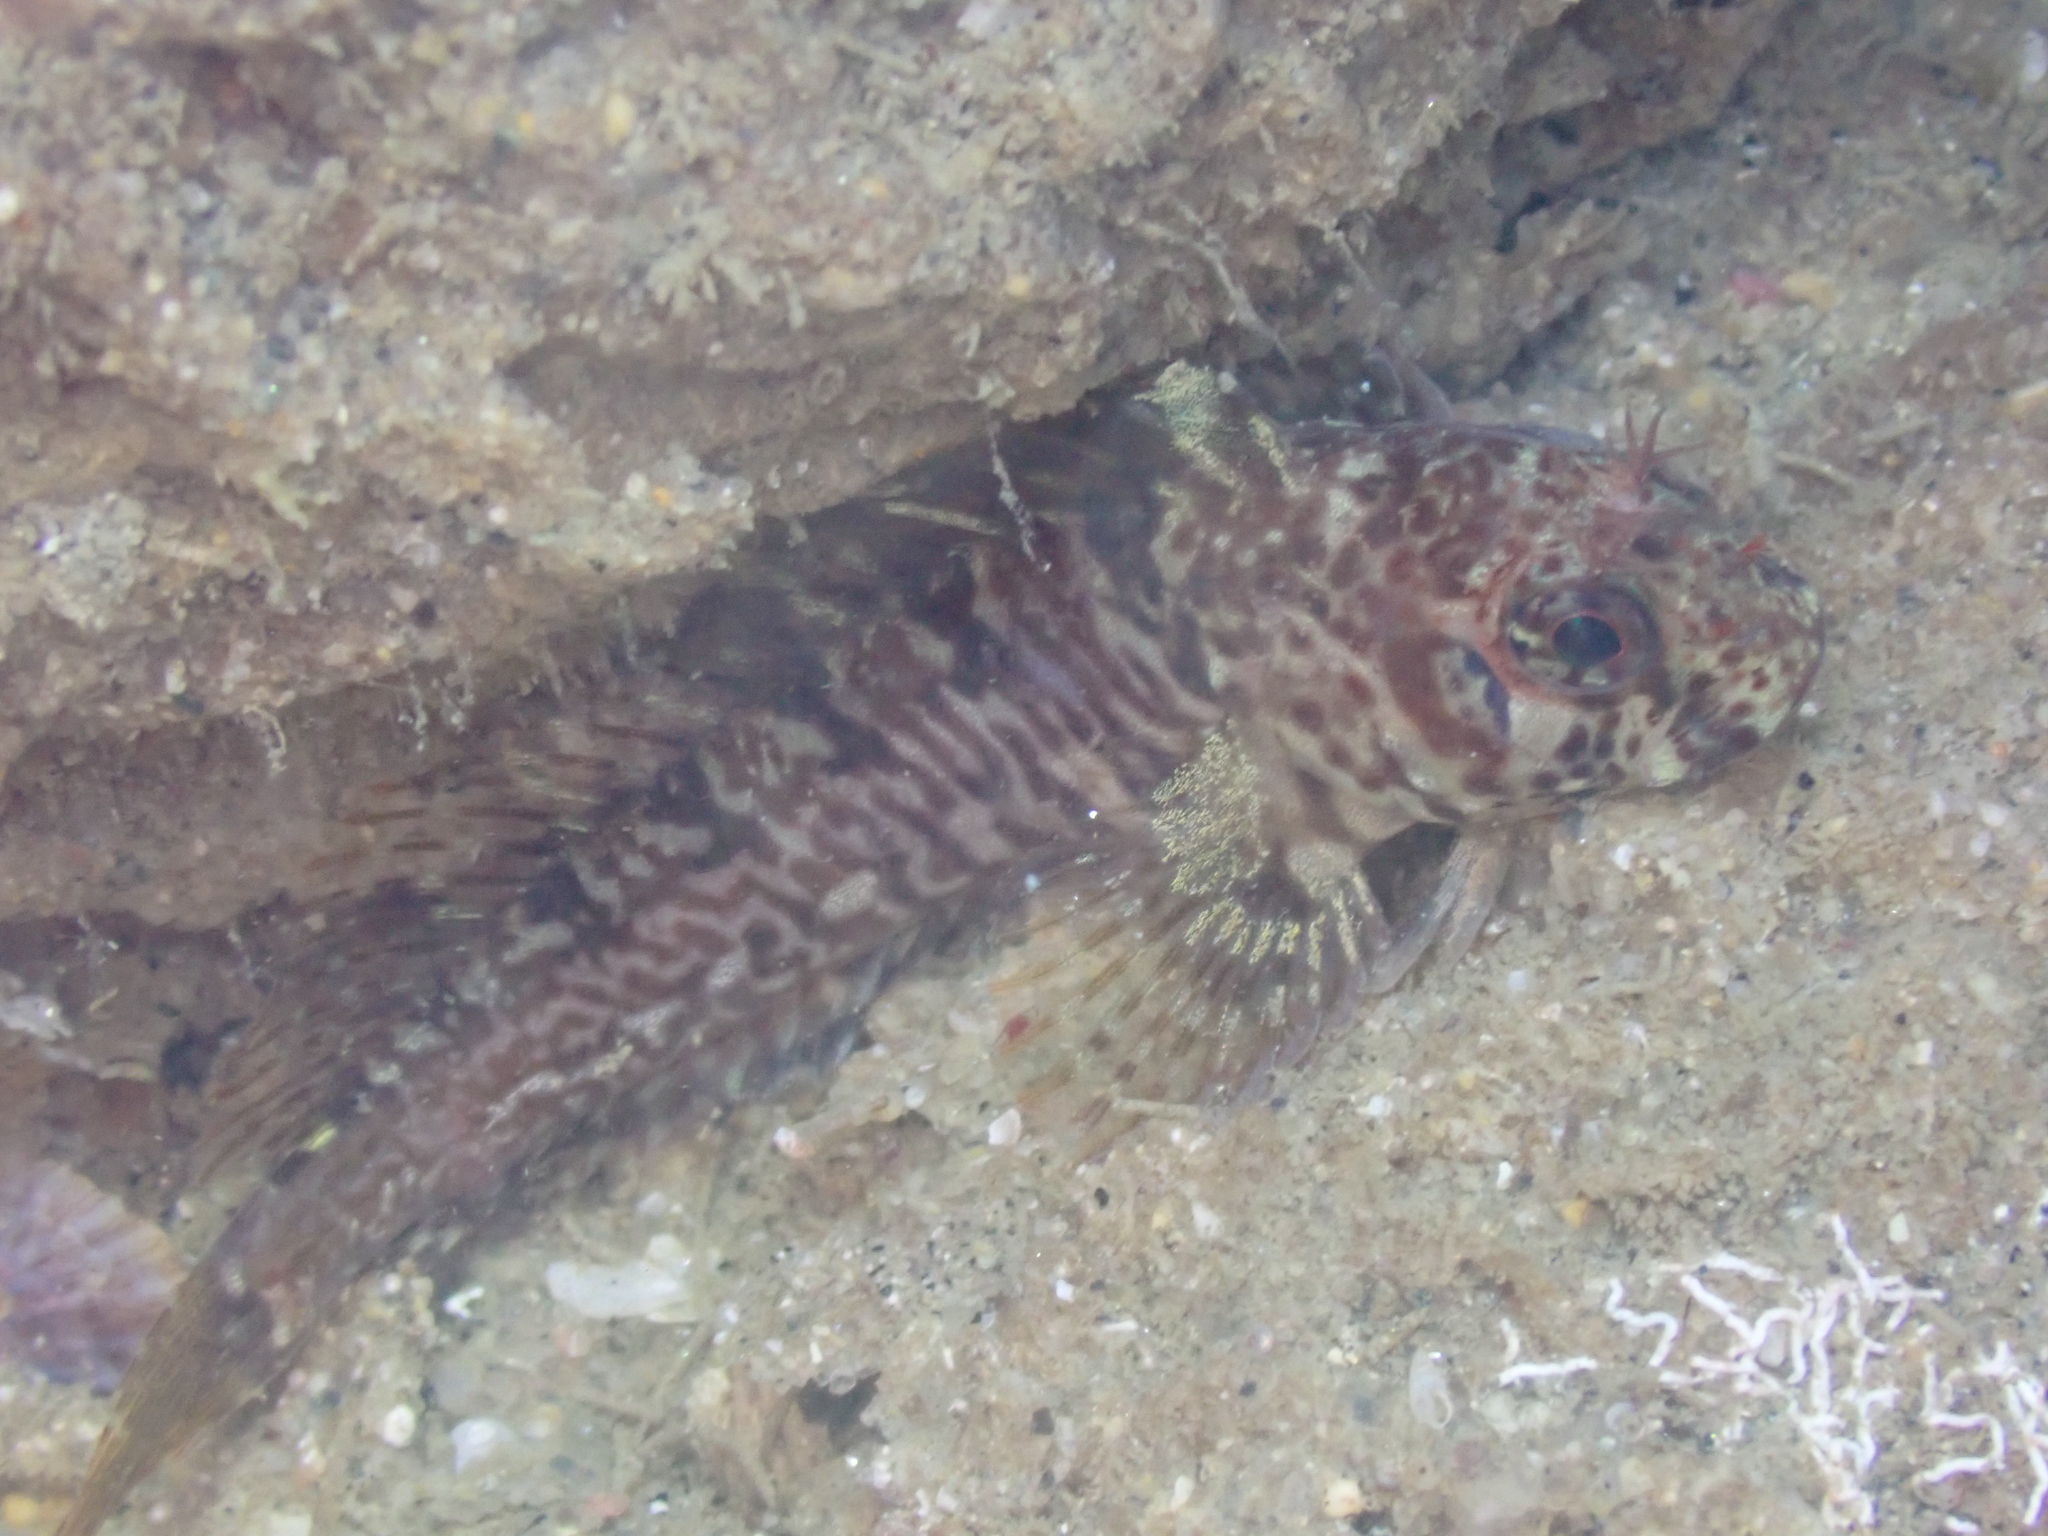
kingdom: Animalia
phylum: Chordata
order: Perciformes
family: Blenniidae
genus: Hypsoblennius
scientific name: Hypsoblennius jenkinsi
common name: Mussel blenny
